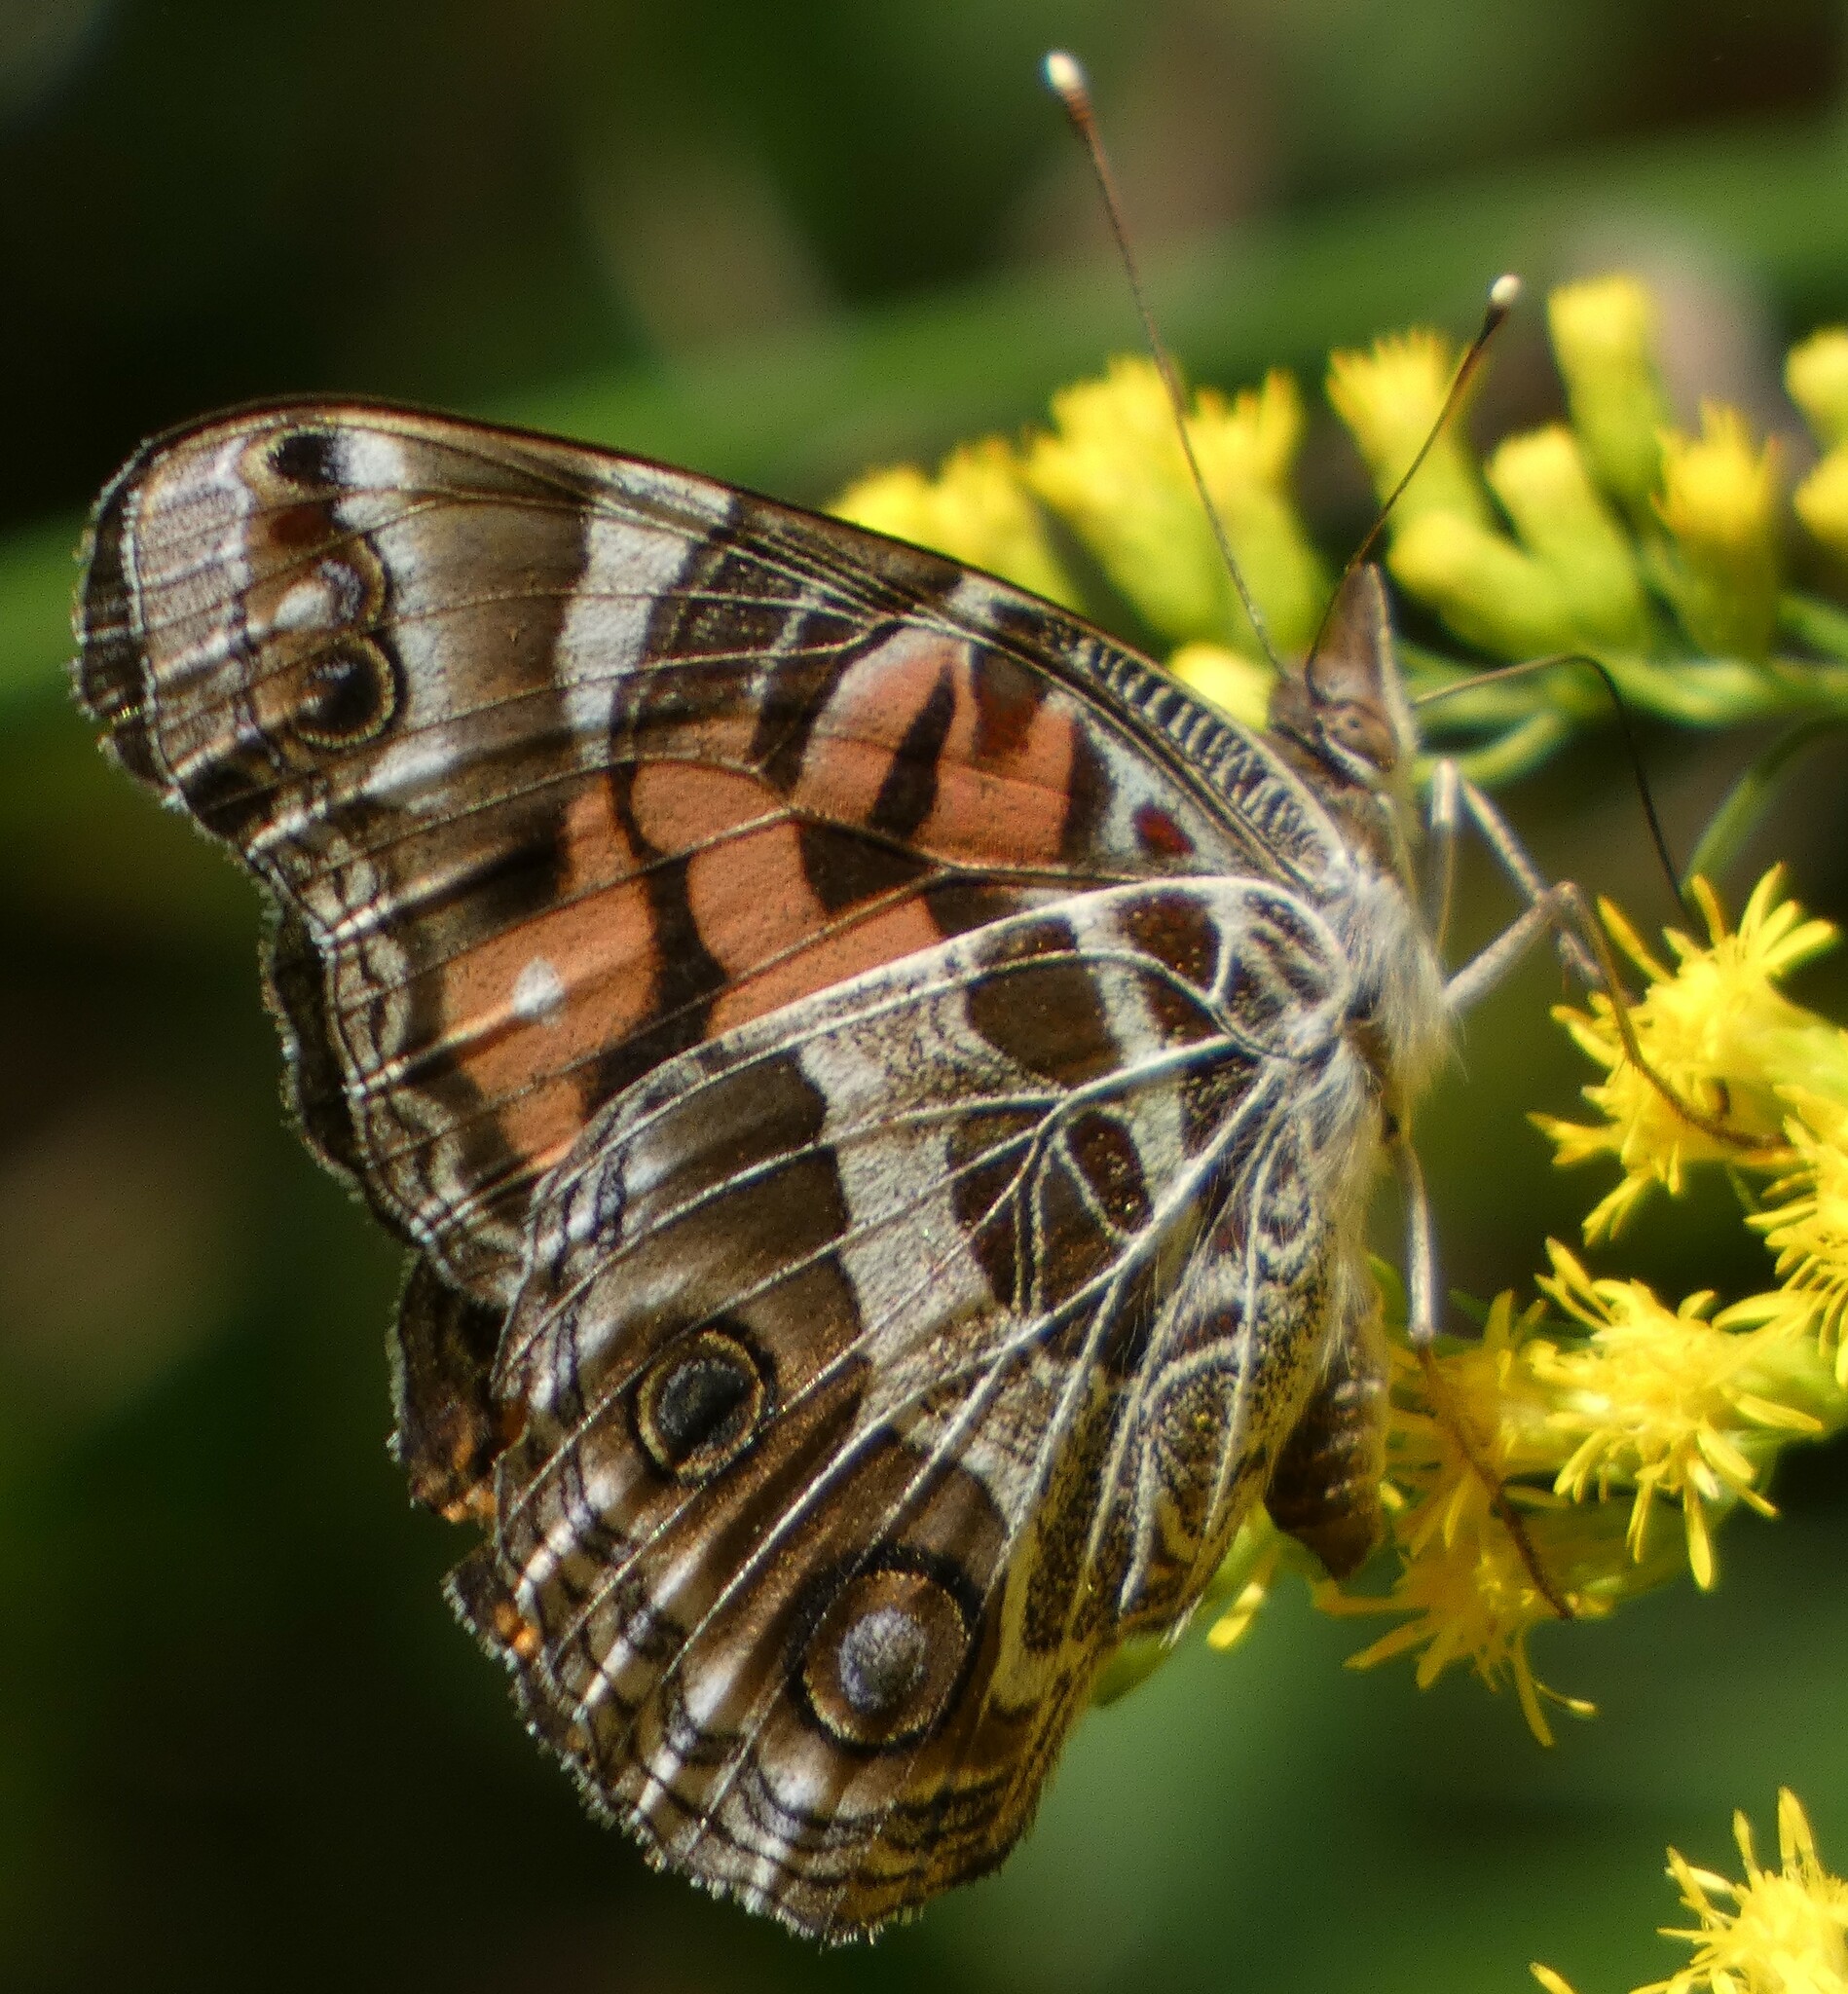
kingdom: Animalia
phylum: Arthropoda
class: Insecta
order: Lepidoptera
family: Nymphalidae
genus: Vanessa
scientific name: Vanessa virginiensis
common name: American lady
